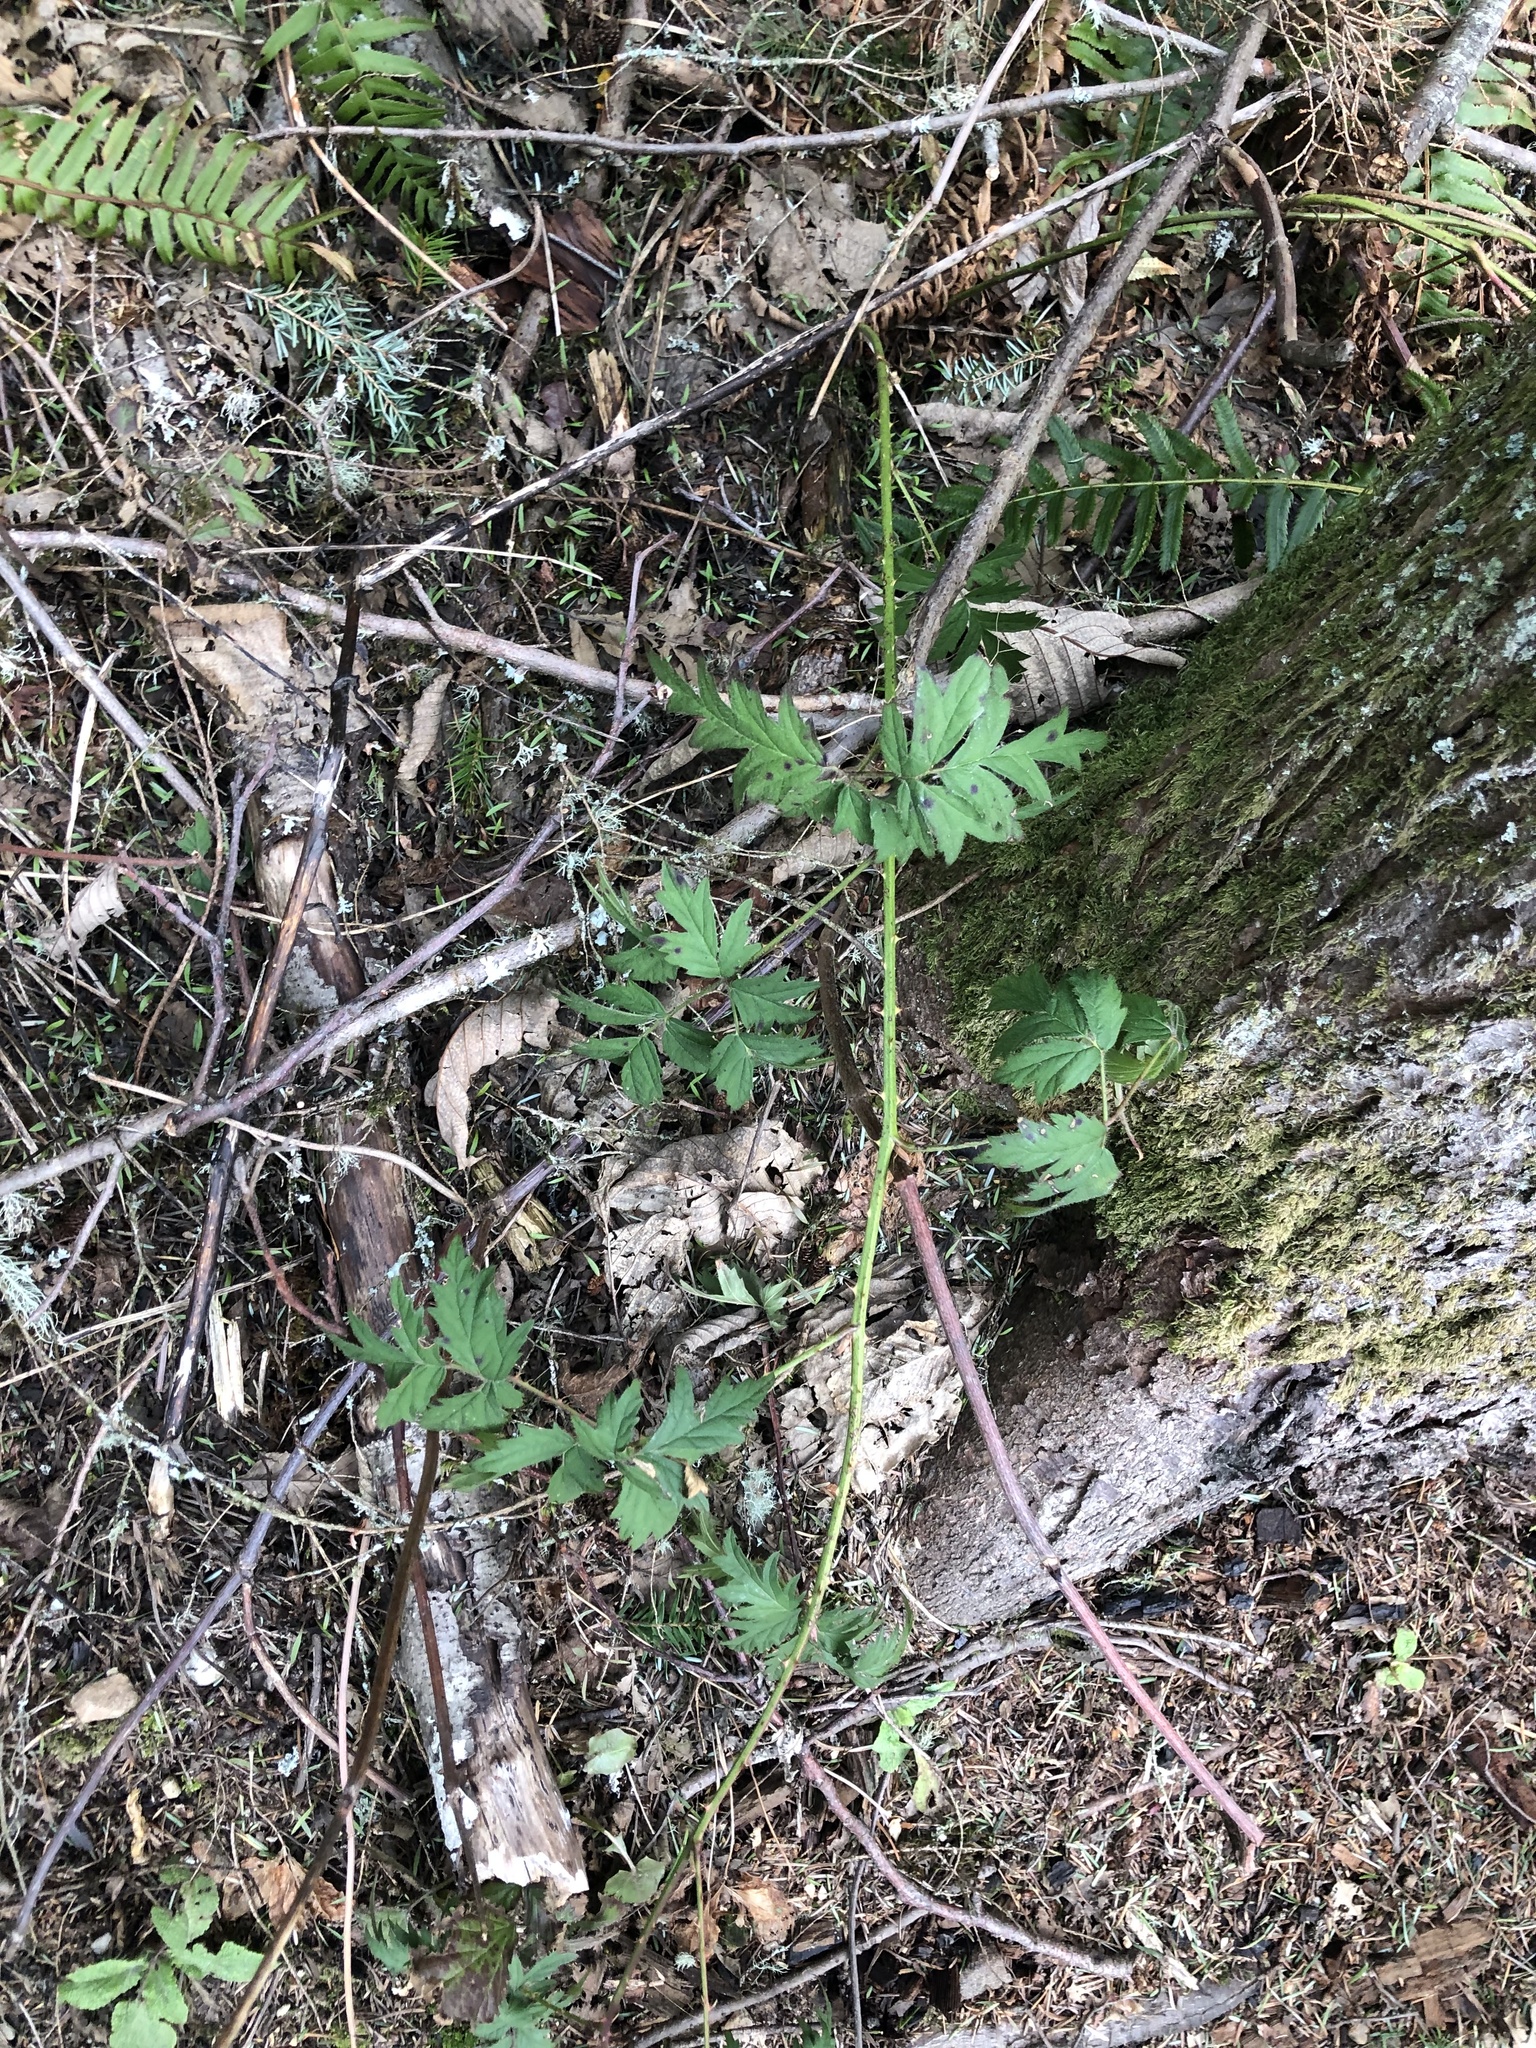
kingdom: Plantae
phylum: Tracheophyta
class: Magnoliopsida
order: Rosales
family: Rosaceae
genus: Rubus
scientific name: Rubus laciniatus
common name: Evergreen blackberry
